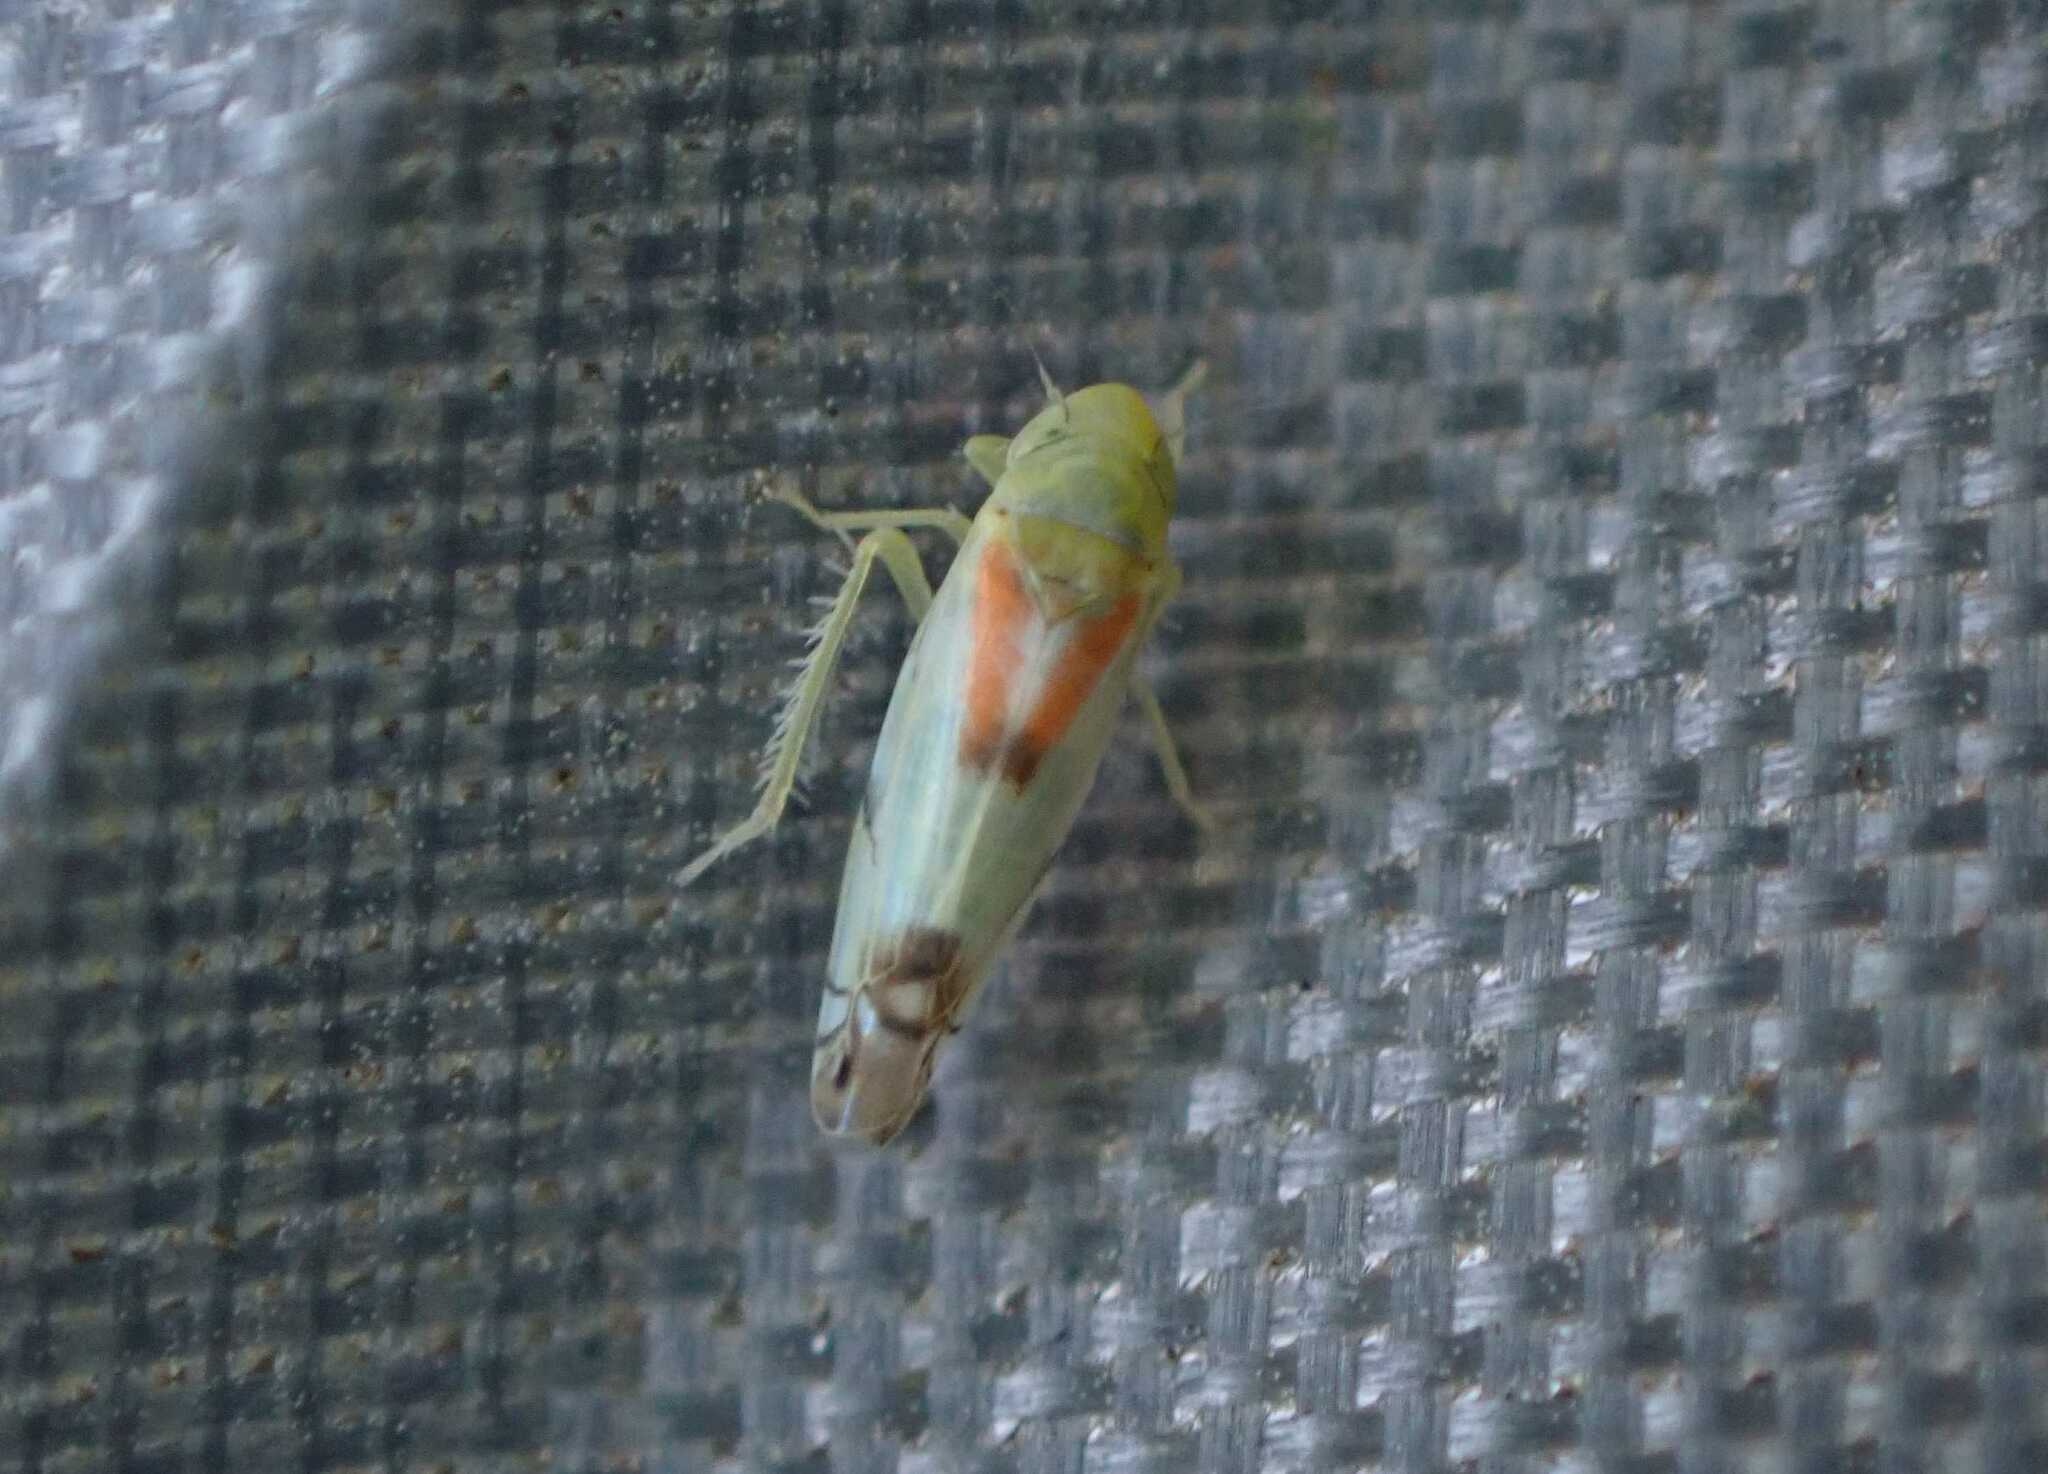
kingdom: Animalia
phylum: Arthropoda
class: Insecta
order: Hemiptera
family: Cicadellidae
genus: Zyginella
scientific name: Zyginella pulchra
